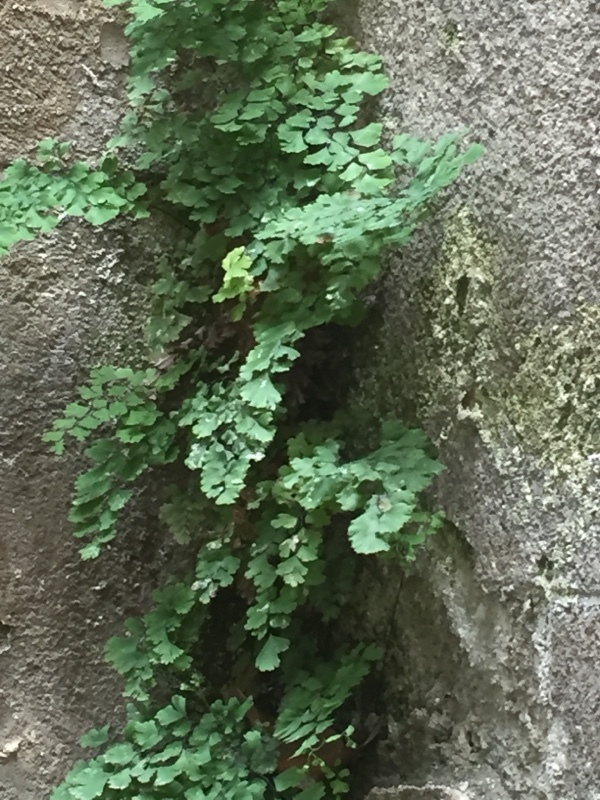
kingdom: Plantae
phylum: Tracheophyta
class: Polypodiopsida
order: Polypodiales
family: Pteridaceae
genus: Adiantum
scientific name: Adiantum capillus-veneris
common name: Maidenhair fern
